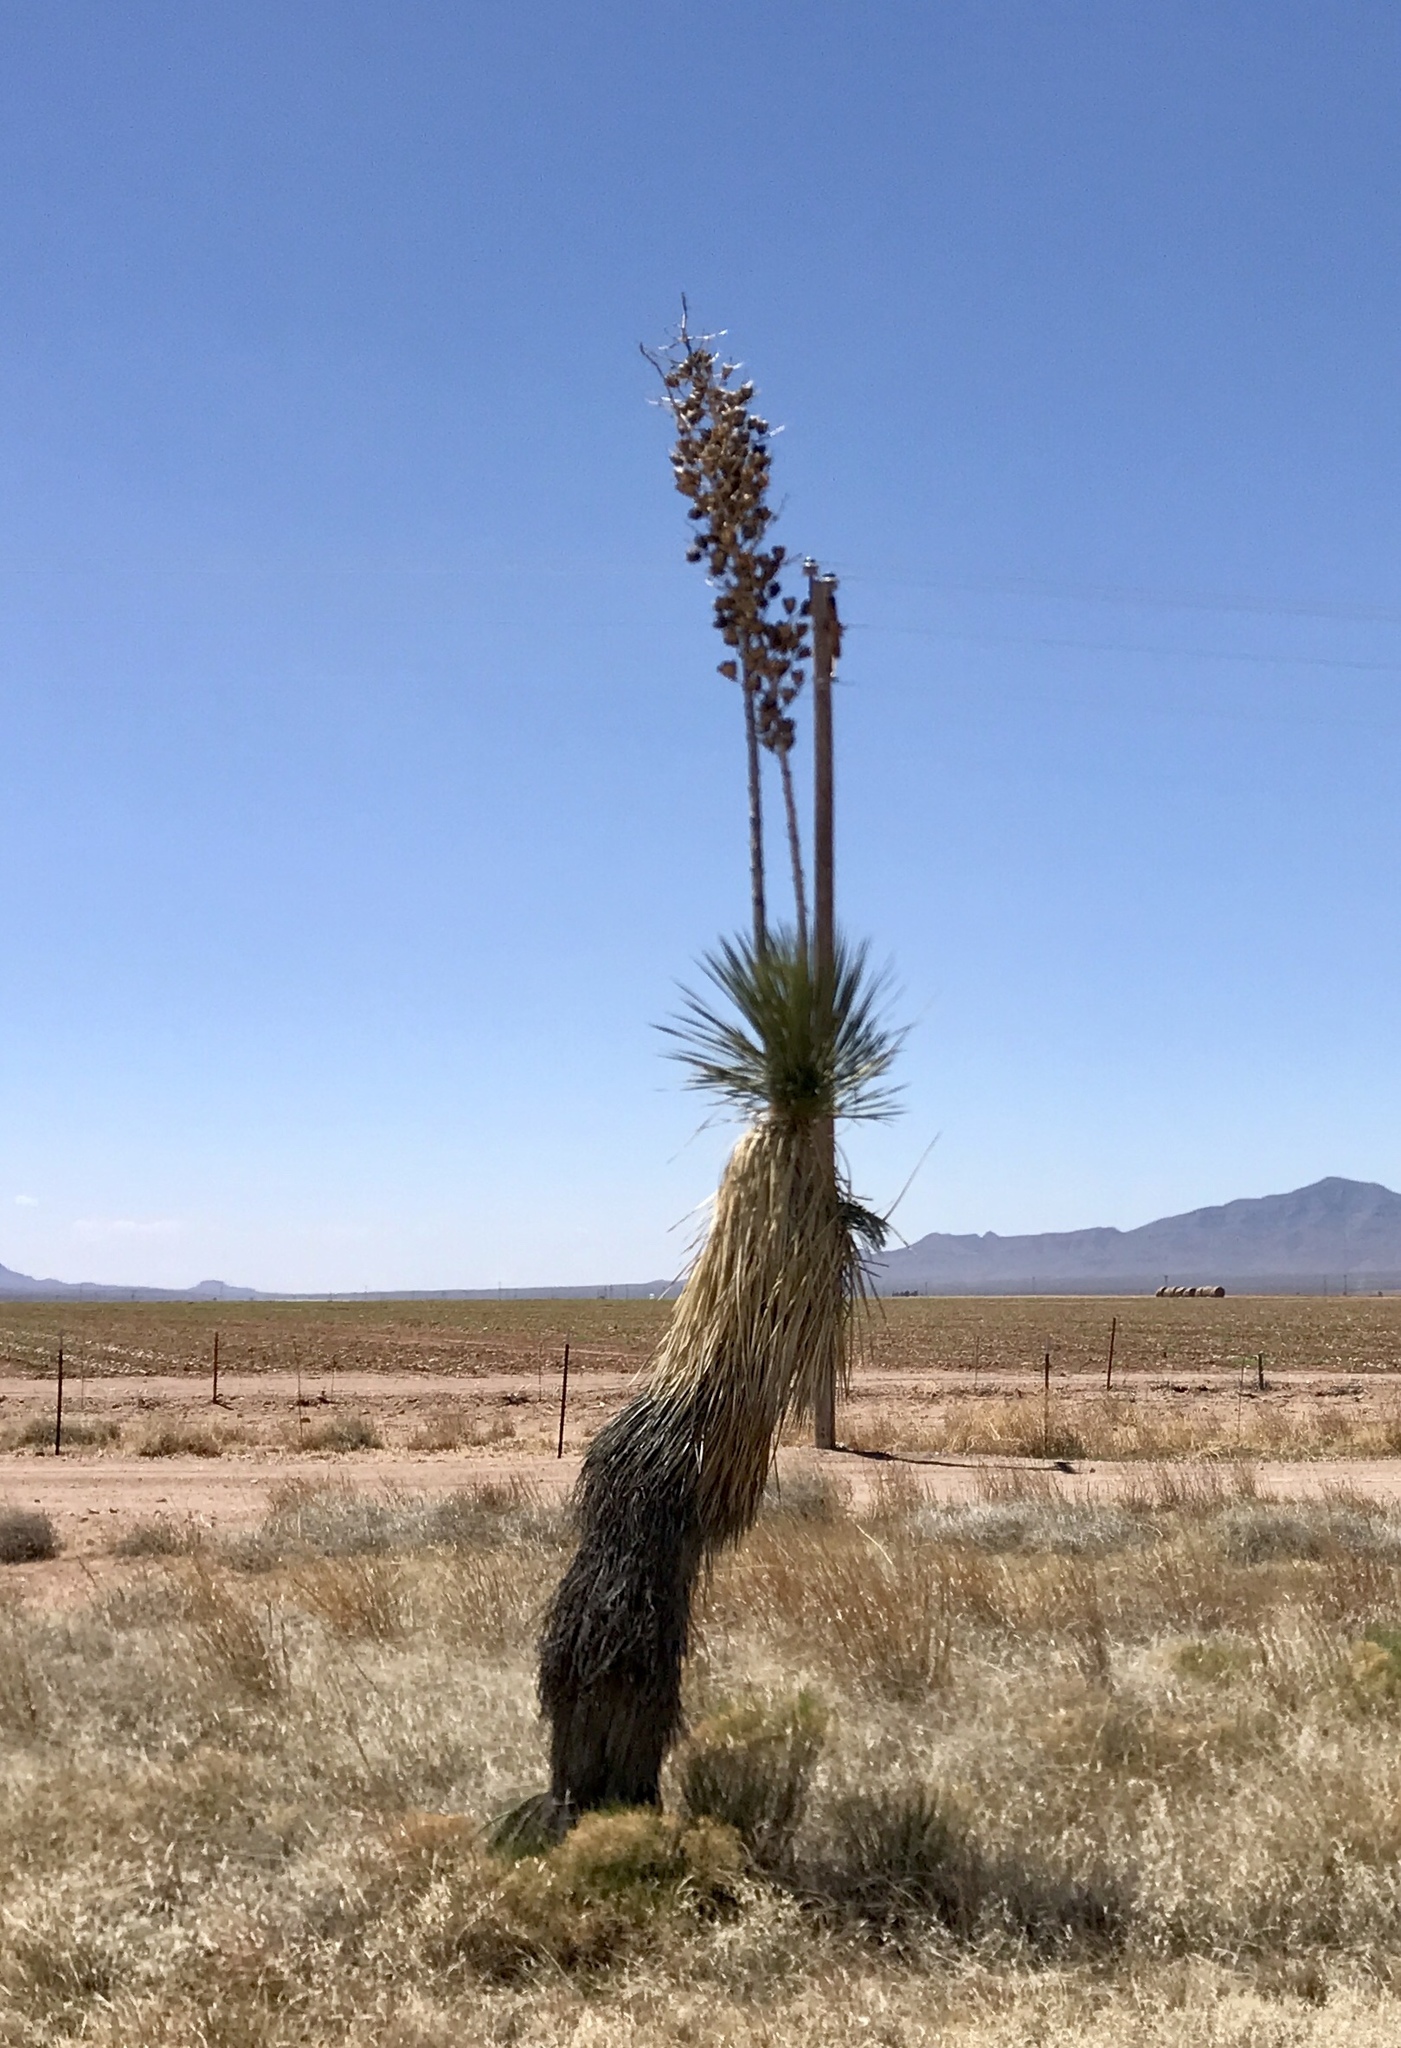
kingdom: Plantae
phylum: Tracheophyta
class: Liliopsida
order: Asparagales
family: Asparagaceae
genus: Yucca
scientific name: Yucca elata
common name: Palmella
